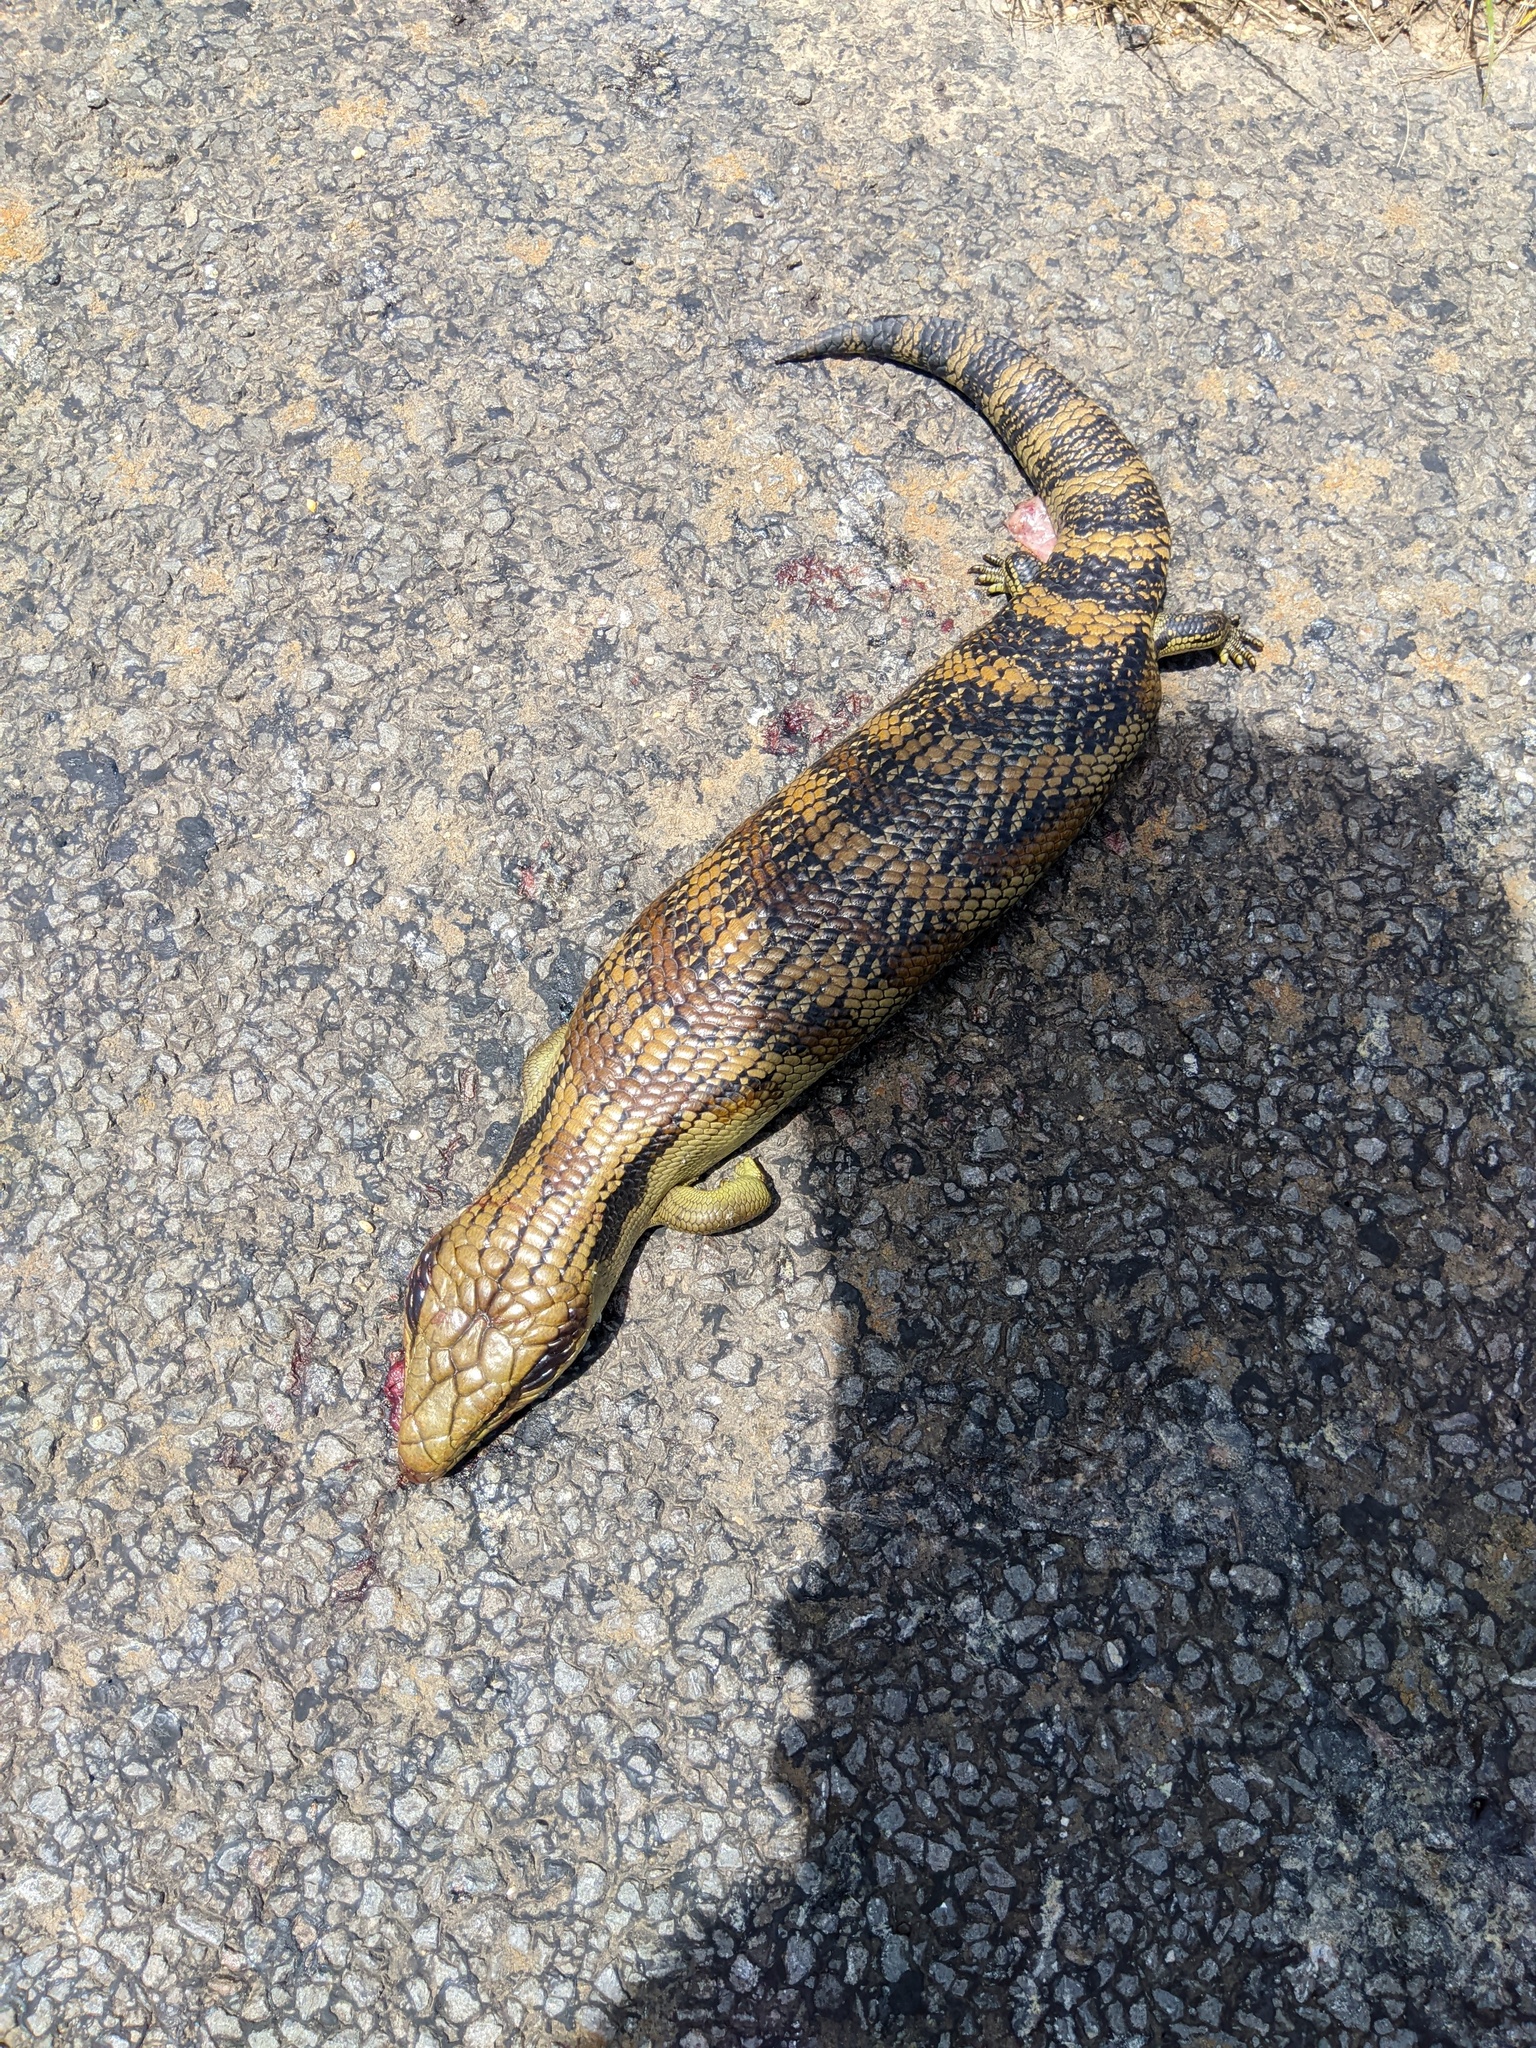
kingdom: Animalia
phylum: Chordata
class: Squamata
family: Scincidae
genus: Tiliqua
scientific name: Tiliqua scincoides
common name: Common bluetongue
